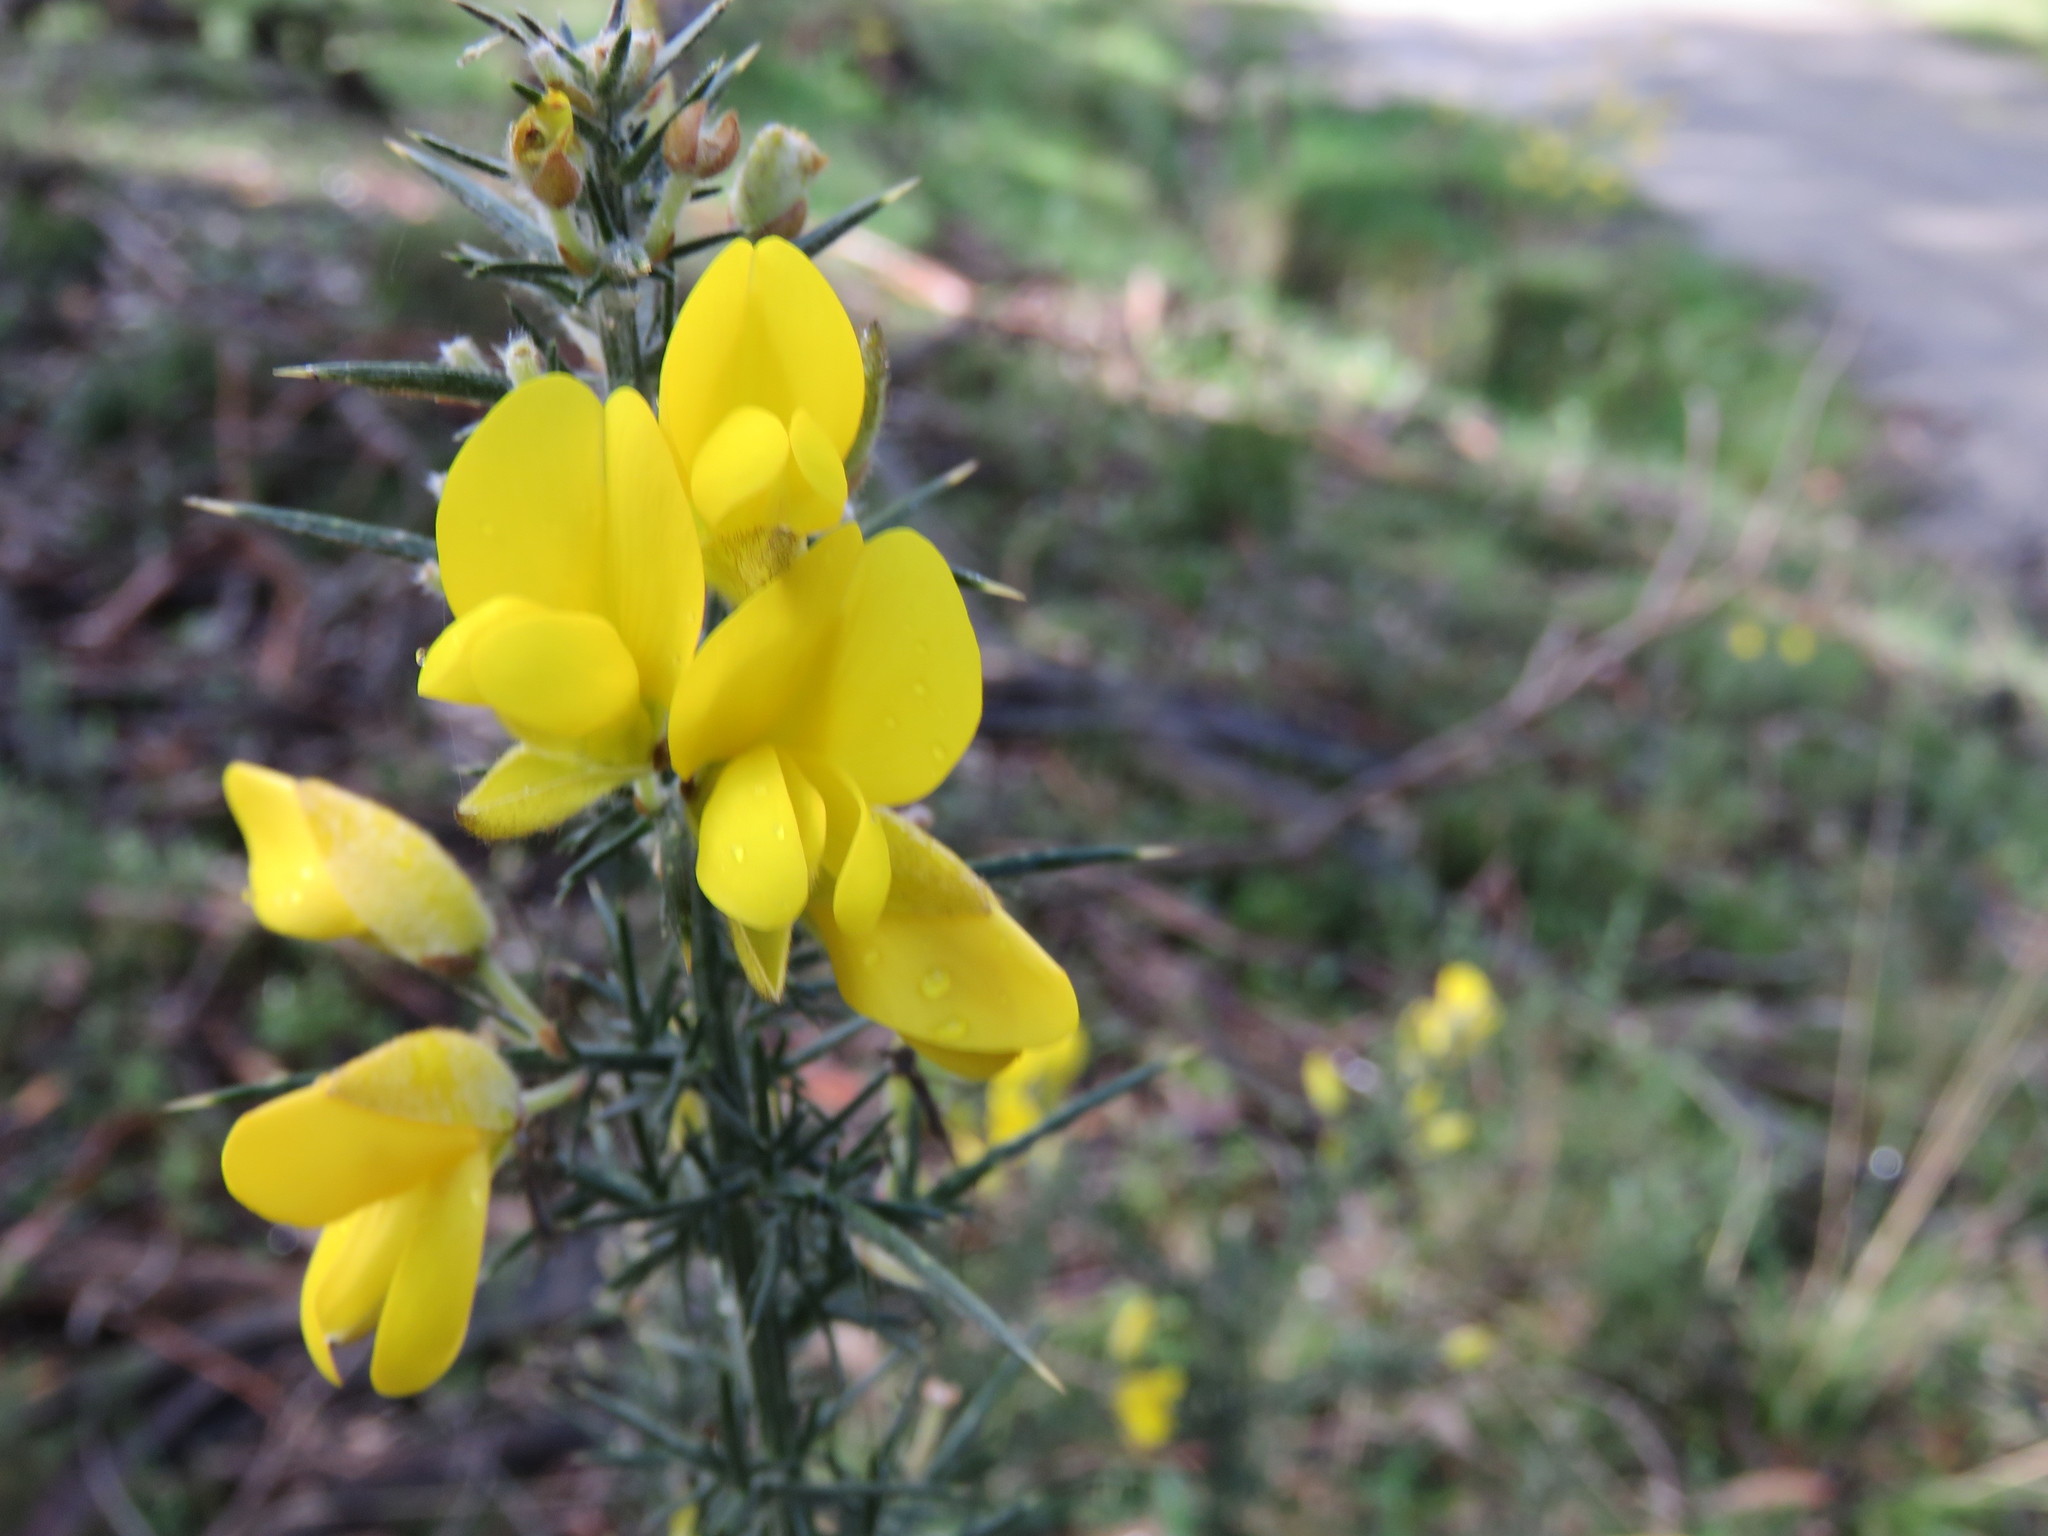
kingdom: Plantae
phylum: Tracheophyta
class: Magnoliopsida
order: Fabales
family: Fabaceae
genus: Ulex
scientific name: Ulex europaeus
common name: Common gorse
